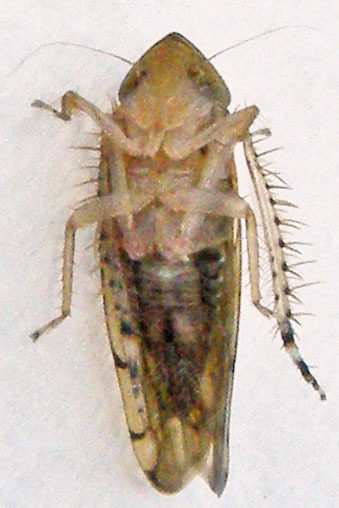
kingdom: Animalia
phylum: Arthropoda
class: Insecta
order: Hemiptera
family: Cicadellidae
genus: Osbornellus
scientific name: Osbornellus auronitens
